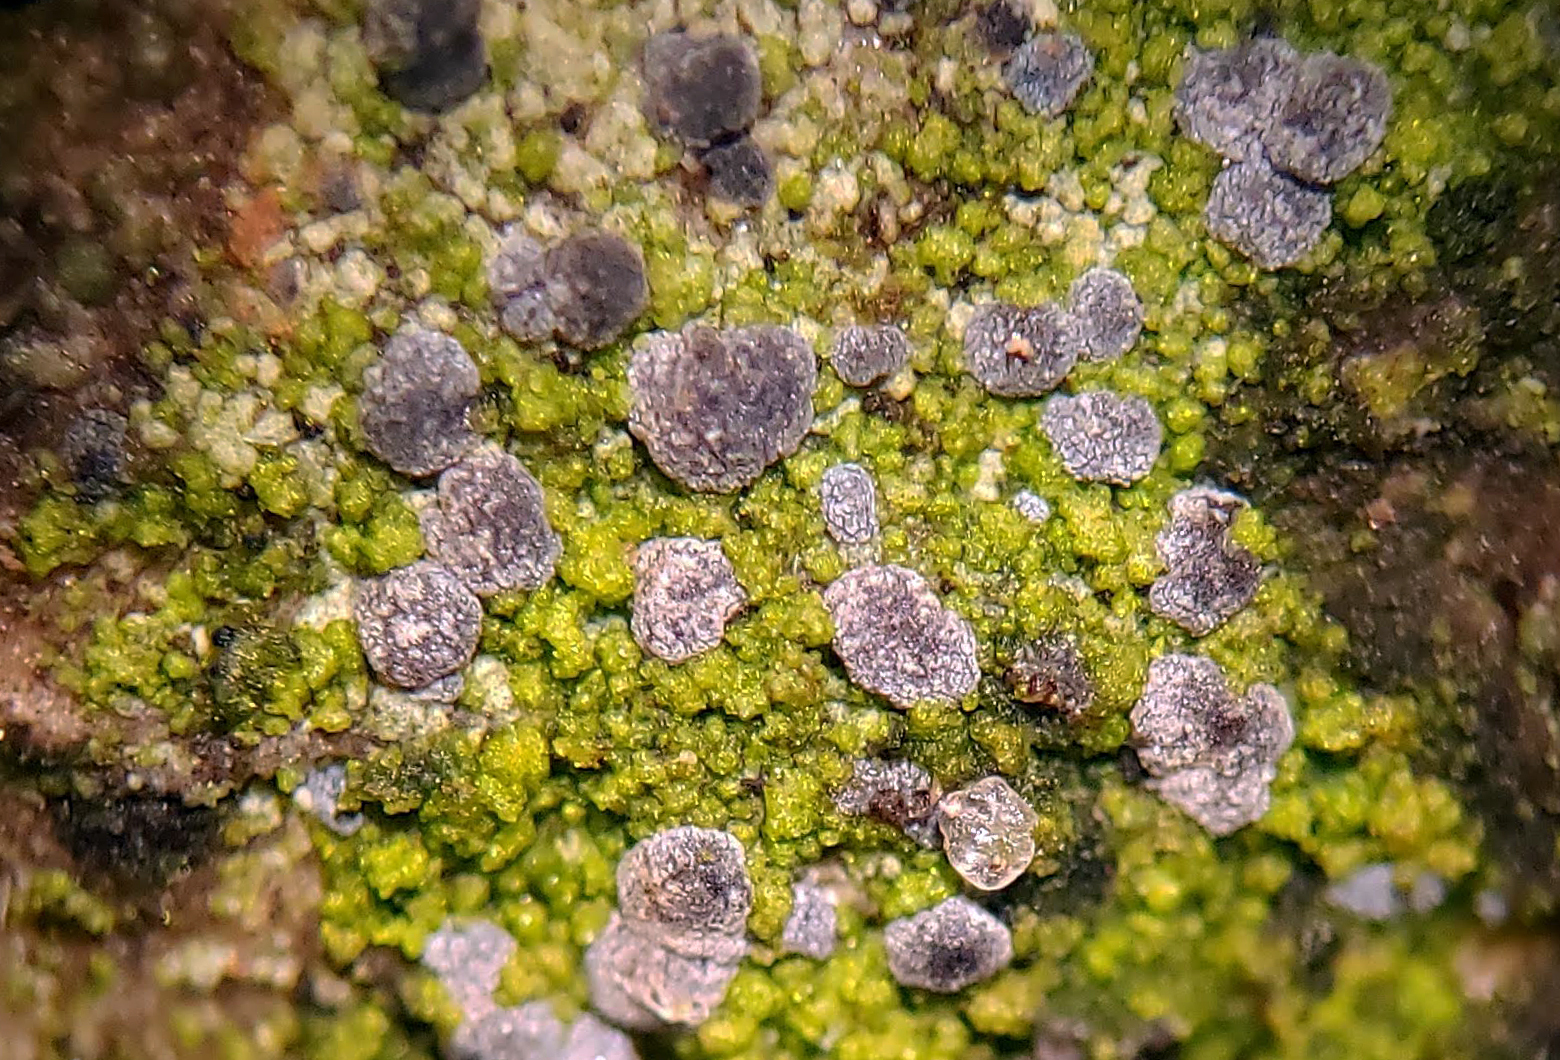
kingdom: Fungi
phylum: Ascomycota
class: Arthoniomycetes
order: Arthoniales
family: Chrysotrichaceae
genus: Chrysothrix
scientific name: Chrysothrix caesia
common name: Frosted comma lichen
